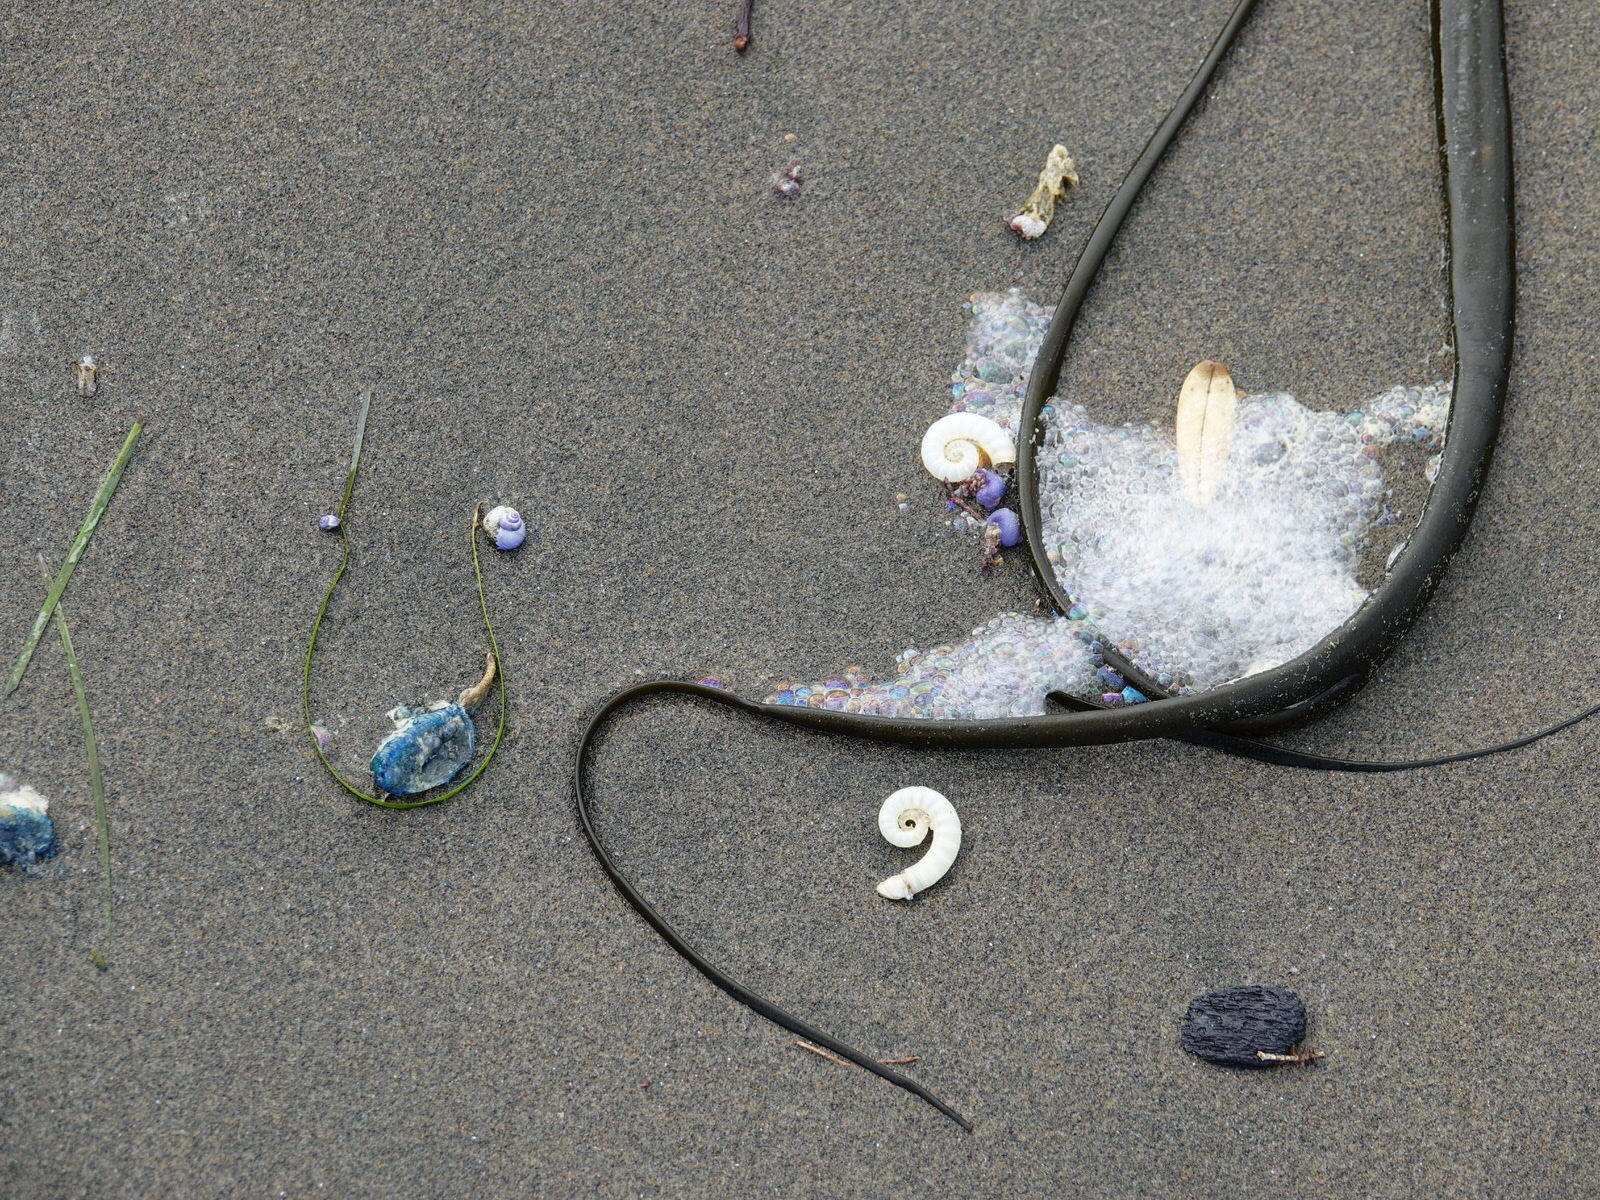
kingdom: Animalia
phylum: Mollusca
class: Cephalopoda
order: Spirulida
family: Spirulidae
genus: Spirula
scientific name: Spirula spirula
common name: Ram's horn squid
